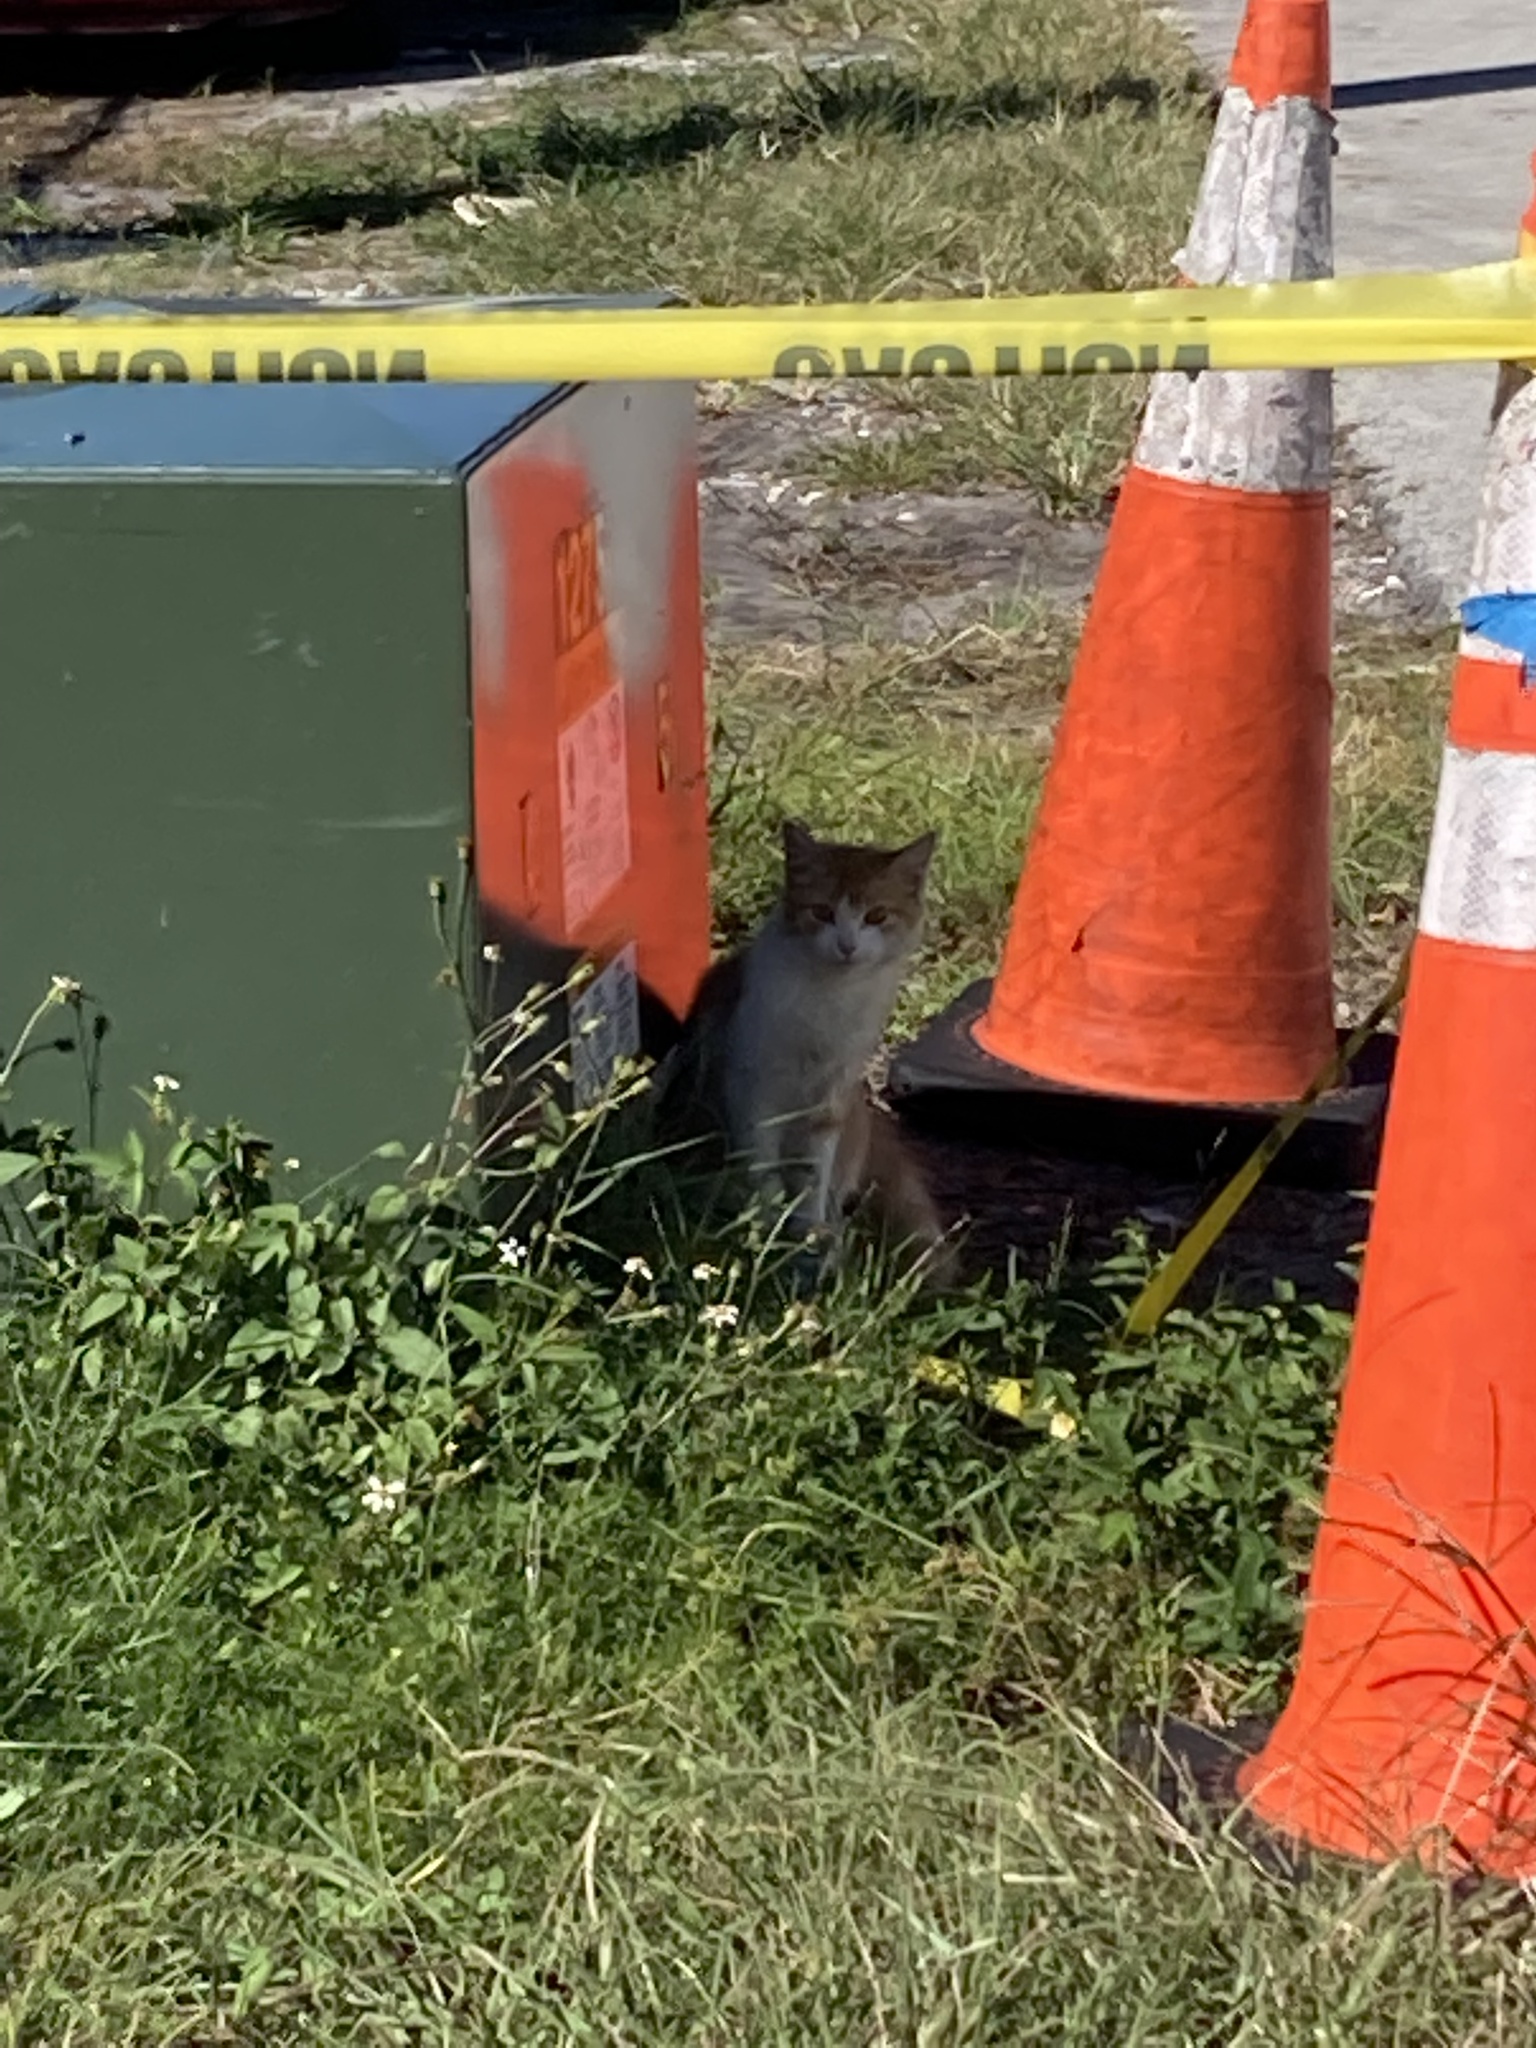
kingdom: Animalia
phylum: Chordata
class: Mammalia
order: Carnivora
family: Felidae
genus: Felis
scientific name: Felis catus
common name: Domestic cat
